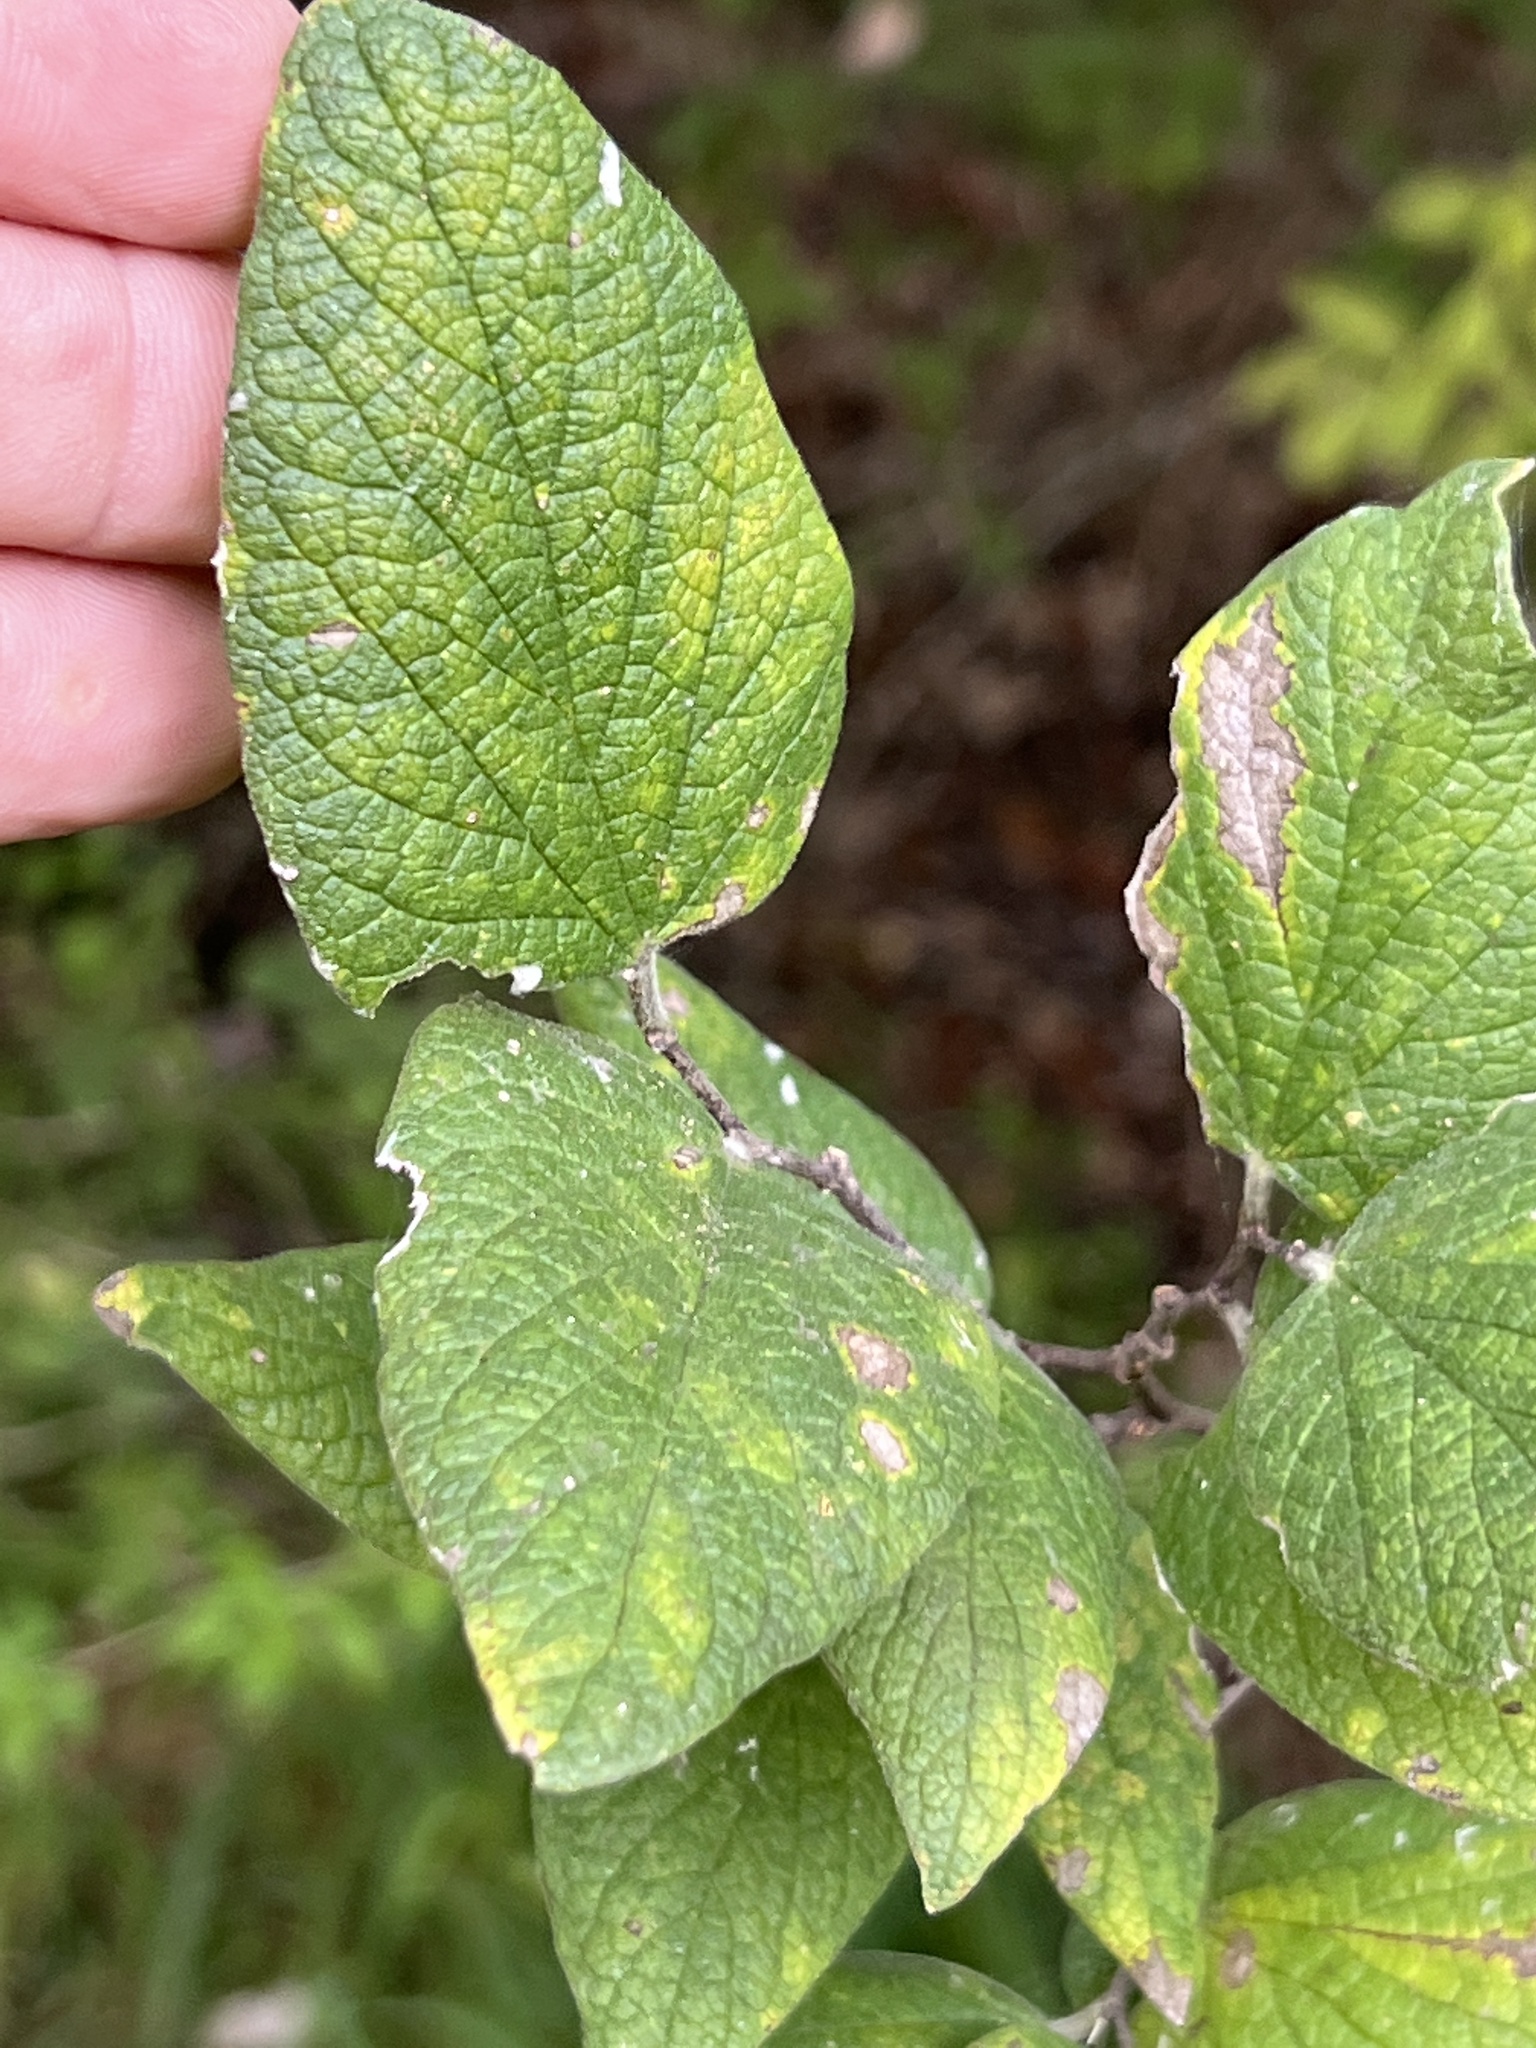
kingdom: Plantae
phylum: Tracheophyta
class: Magnoliopsida
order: Rosales
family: Cannabaceae
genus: Celtis
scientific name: Celtis reticulata
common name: Netleaf hackberry
